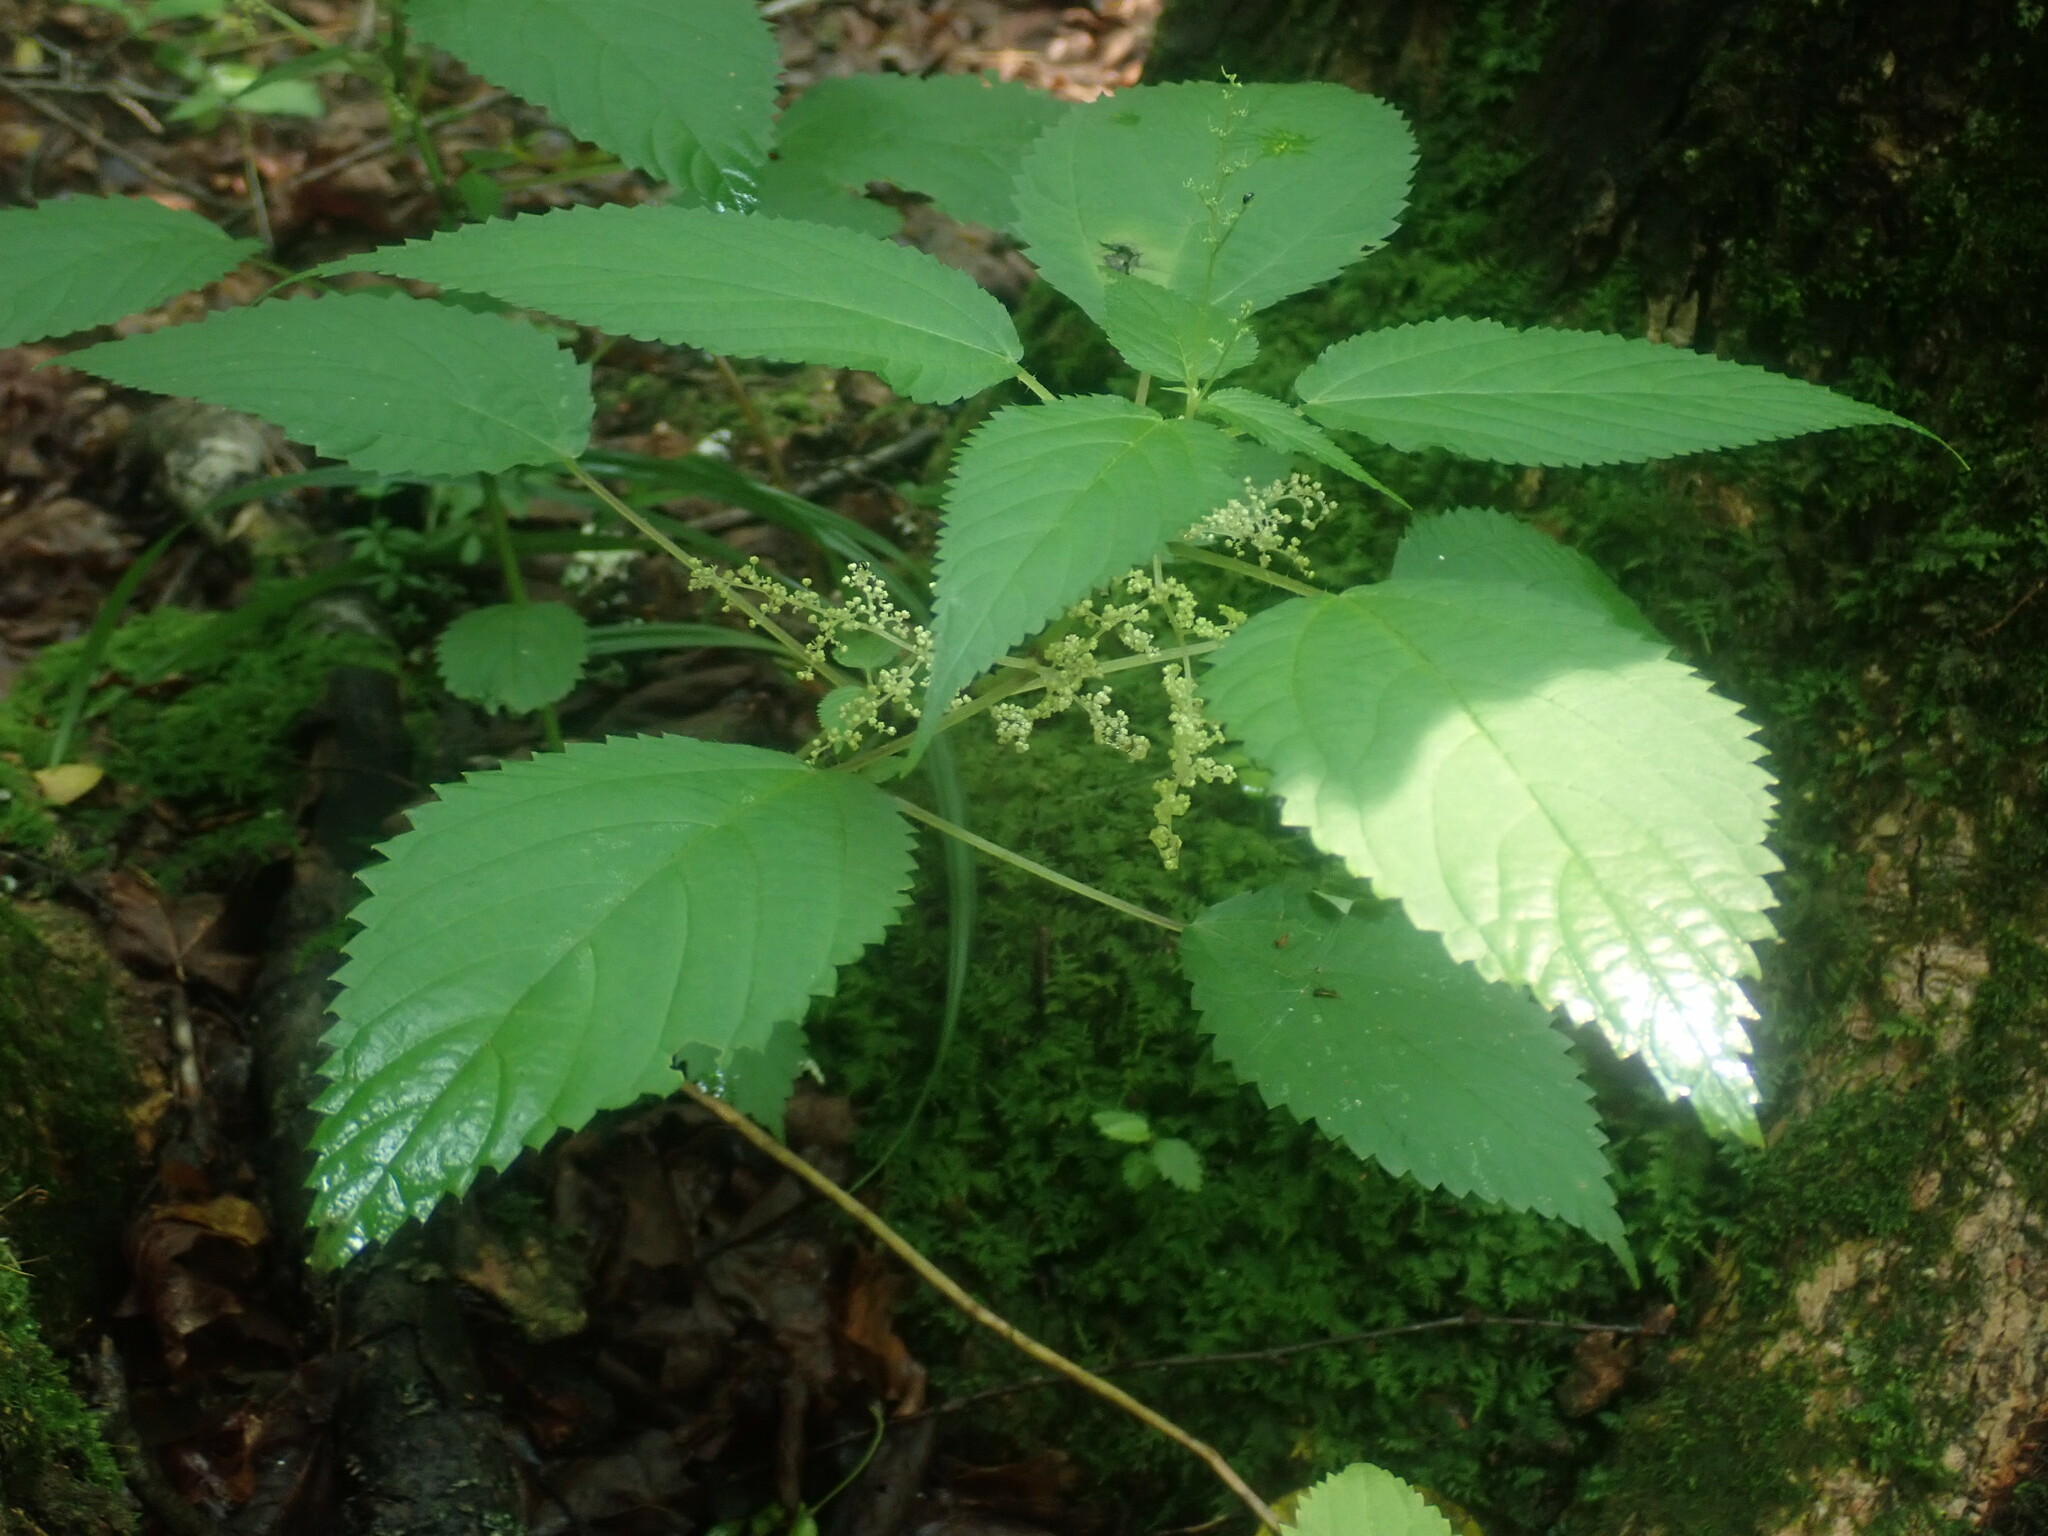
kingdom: Plantae
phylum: Tracheophyta
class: Magnoliopsida
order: Rosales
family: Urticaceae
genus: Laportea
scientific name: Laportea canadensis
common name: Canada nettle
